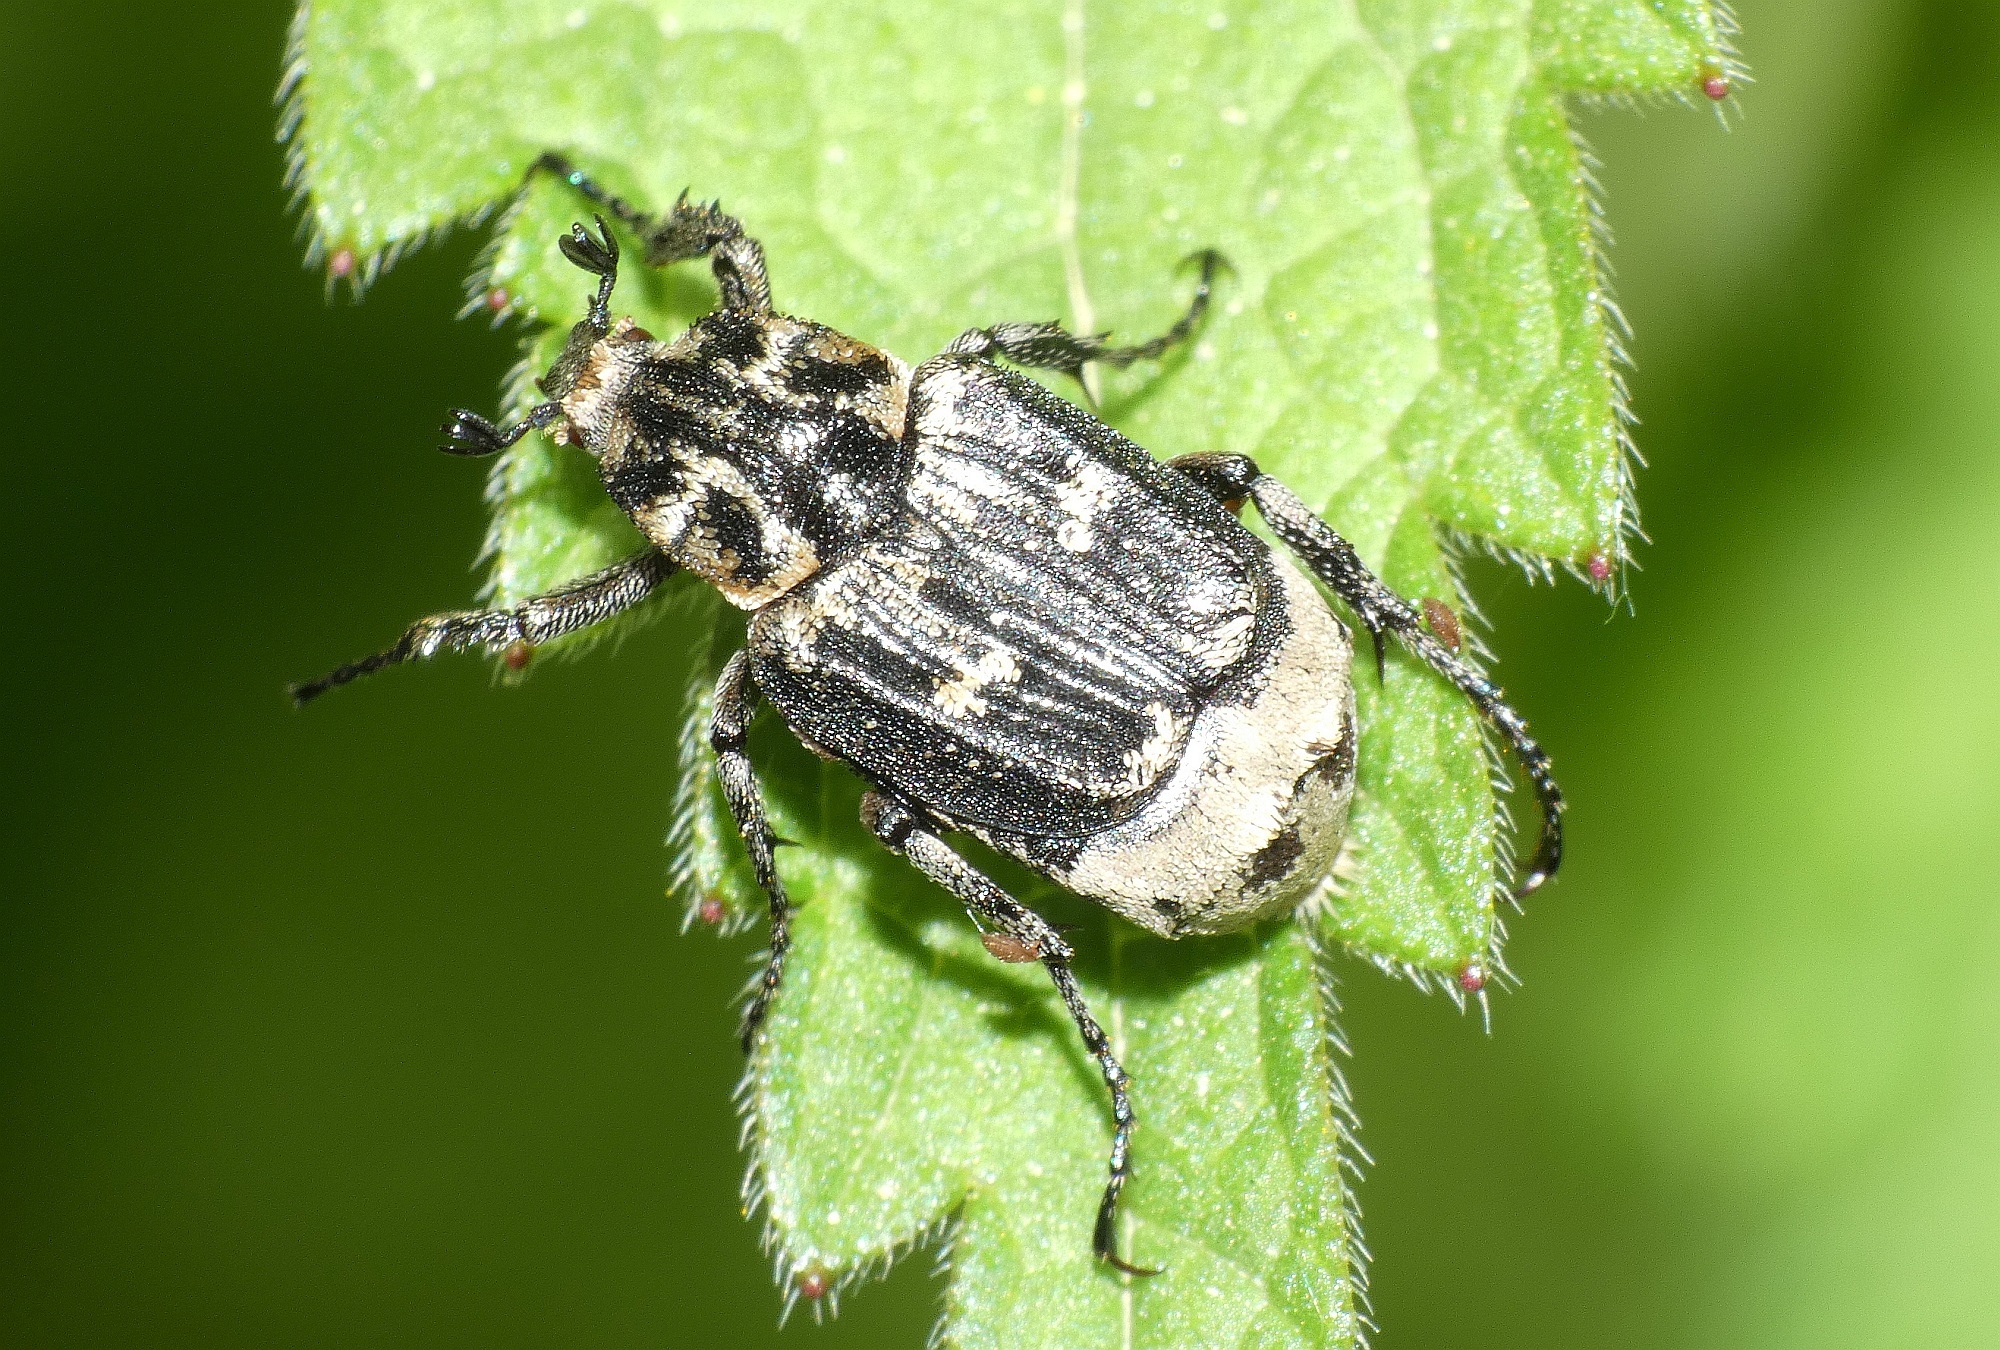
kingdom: Animalia
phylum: Arthropoda
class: Insecta
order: Coleoptera
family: Scarabaeidae
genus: Valgus
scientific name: Valgus hemipterus
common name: Bug flower chafer
